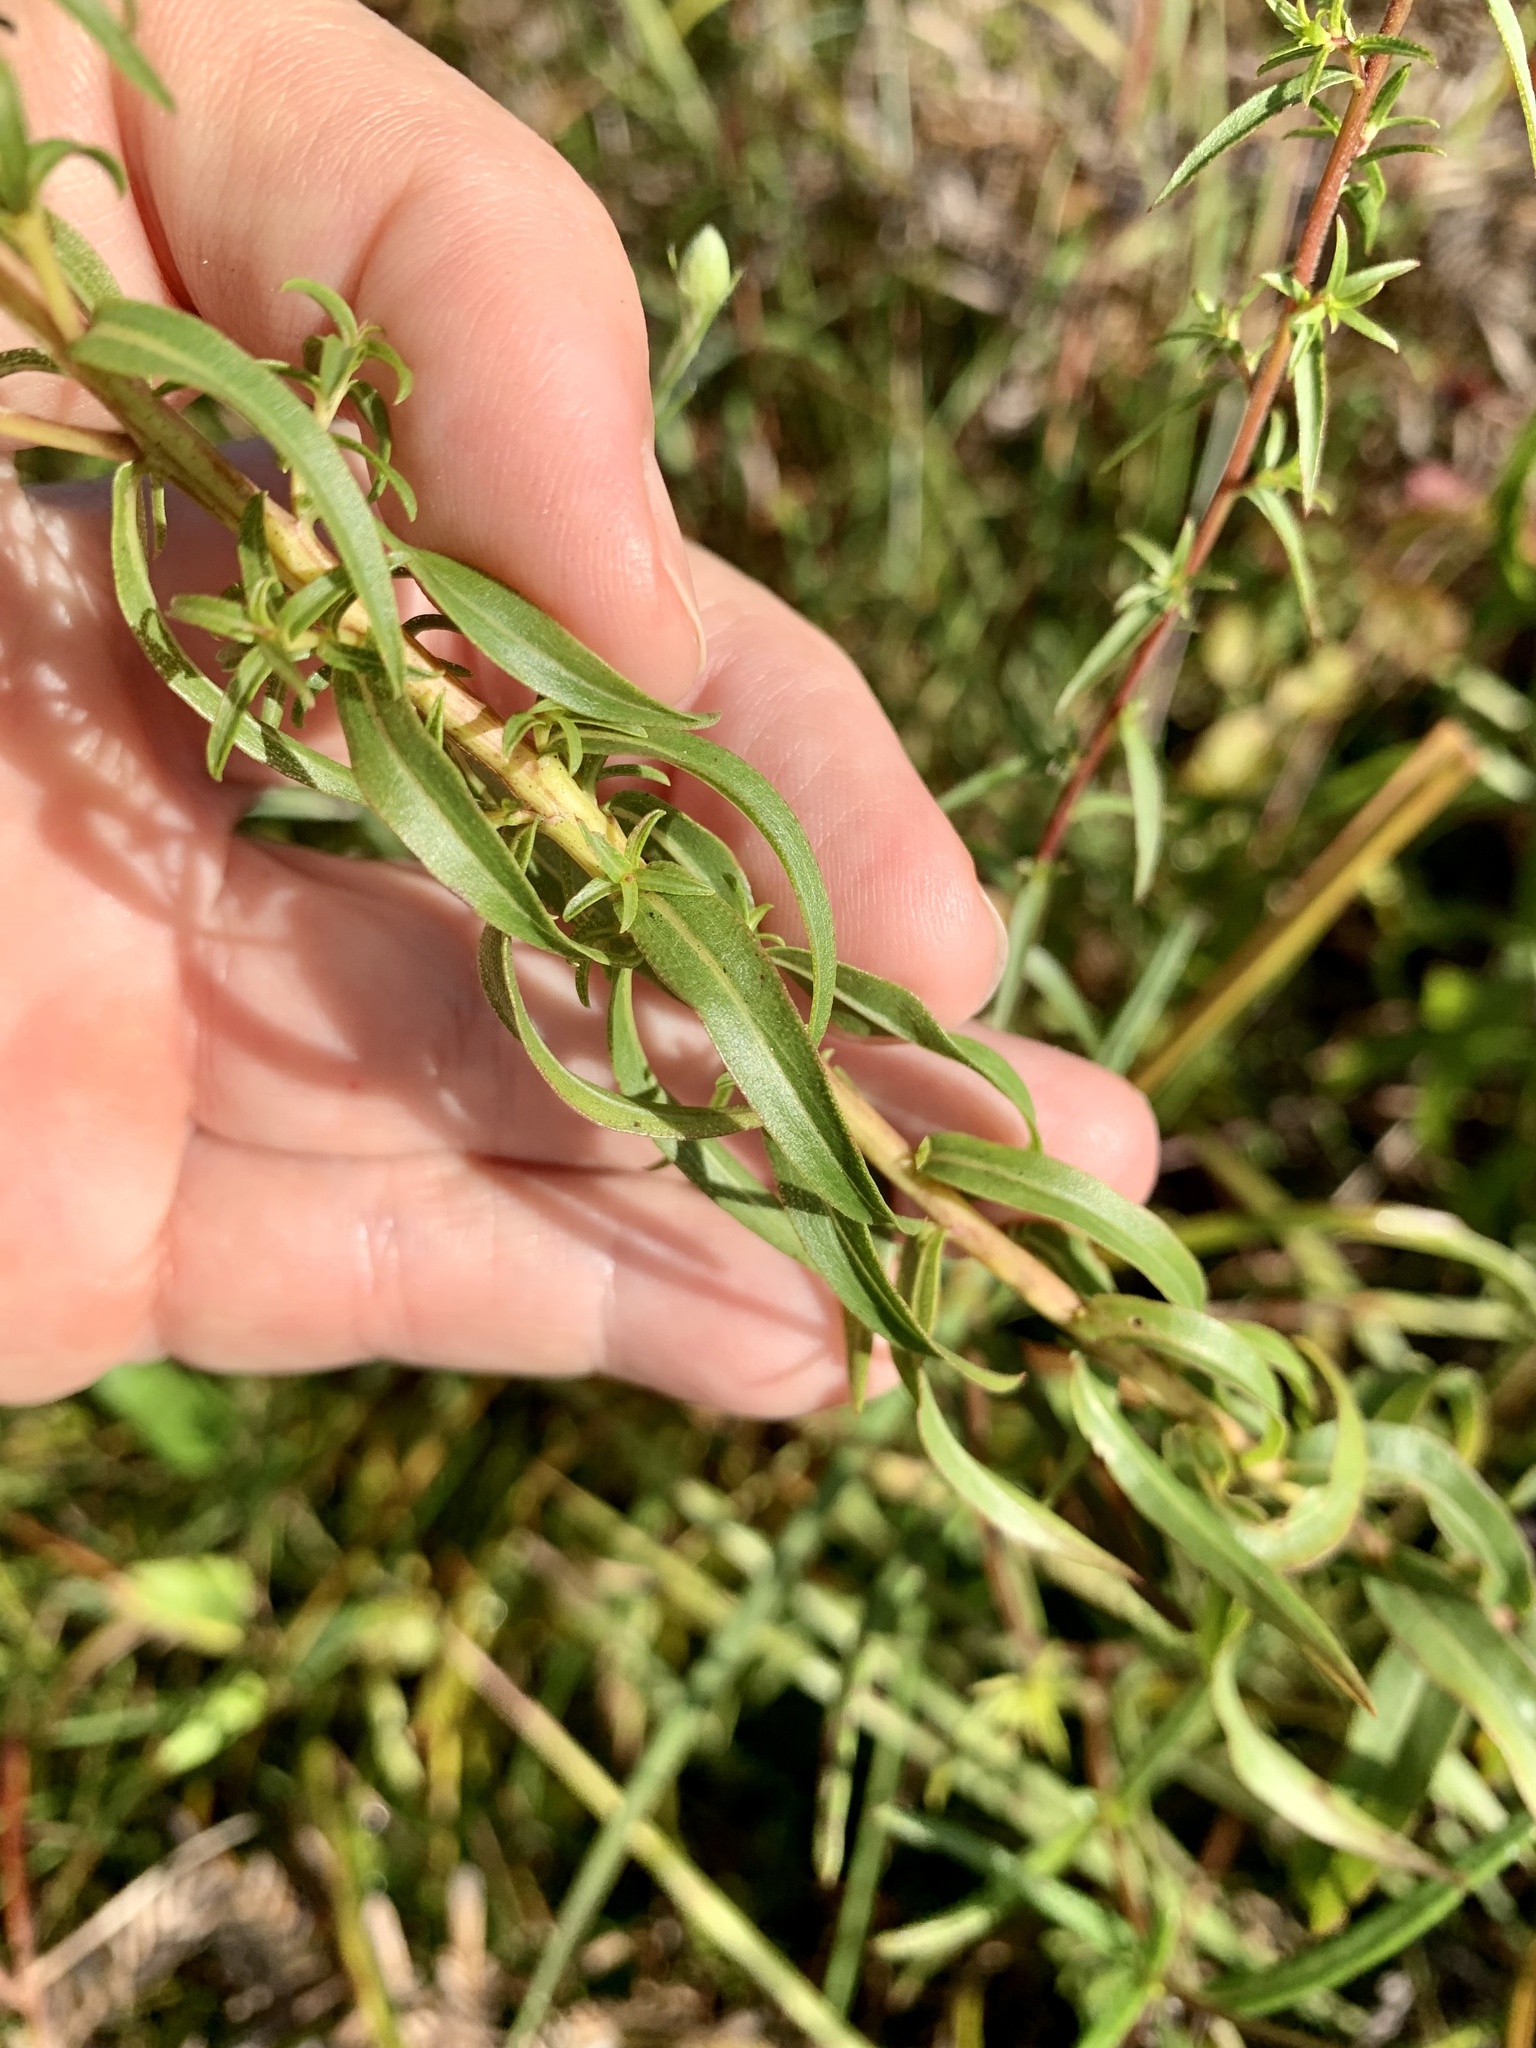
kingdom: Plantae
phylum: Tracheophyta
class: Magnoliopsida
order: Asterales
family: Asteraceae
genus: Solidago
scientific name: Solidago odora
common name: Anise-scented goldenrod
